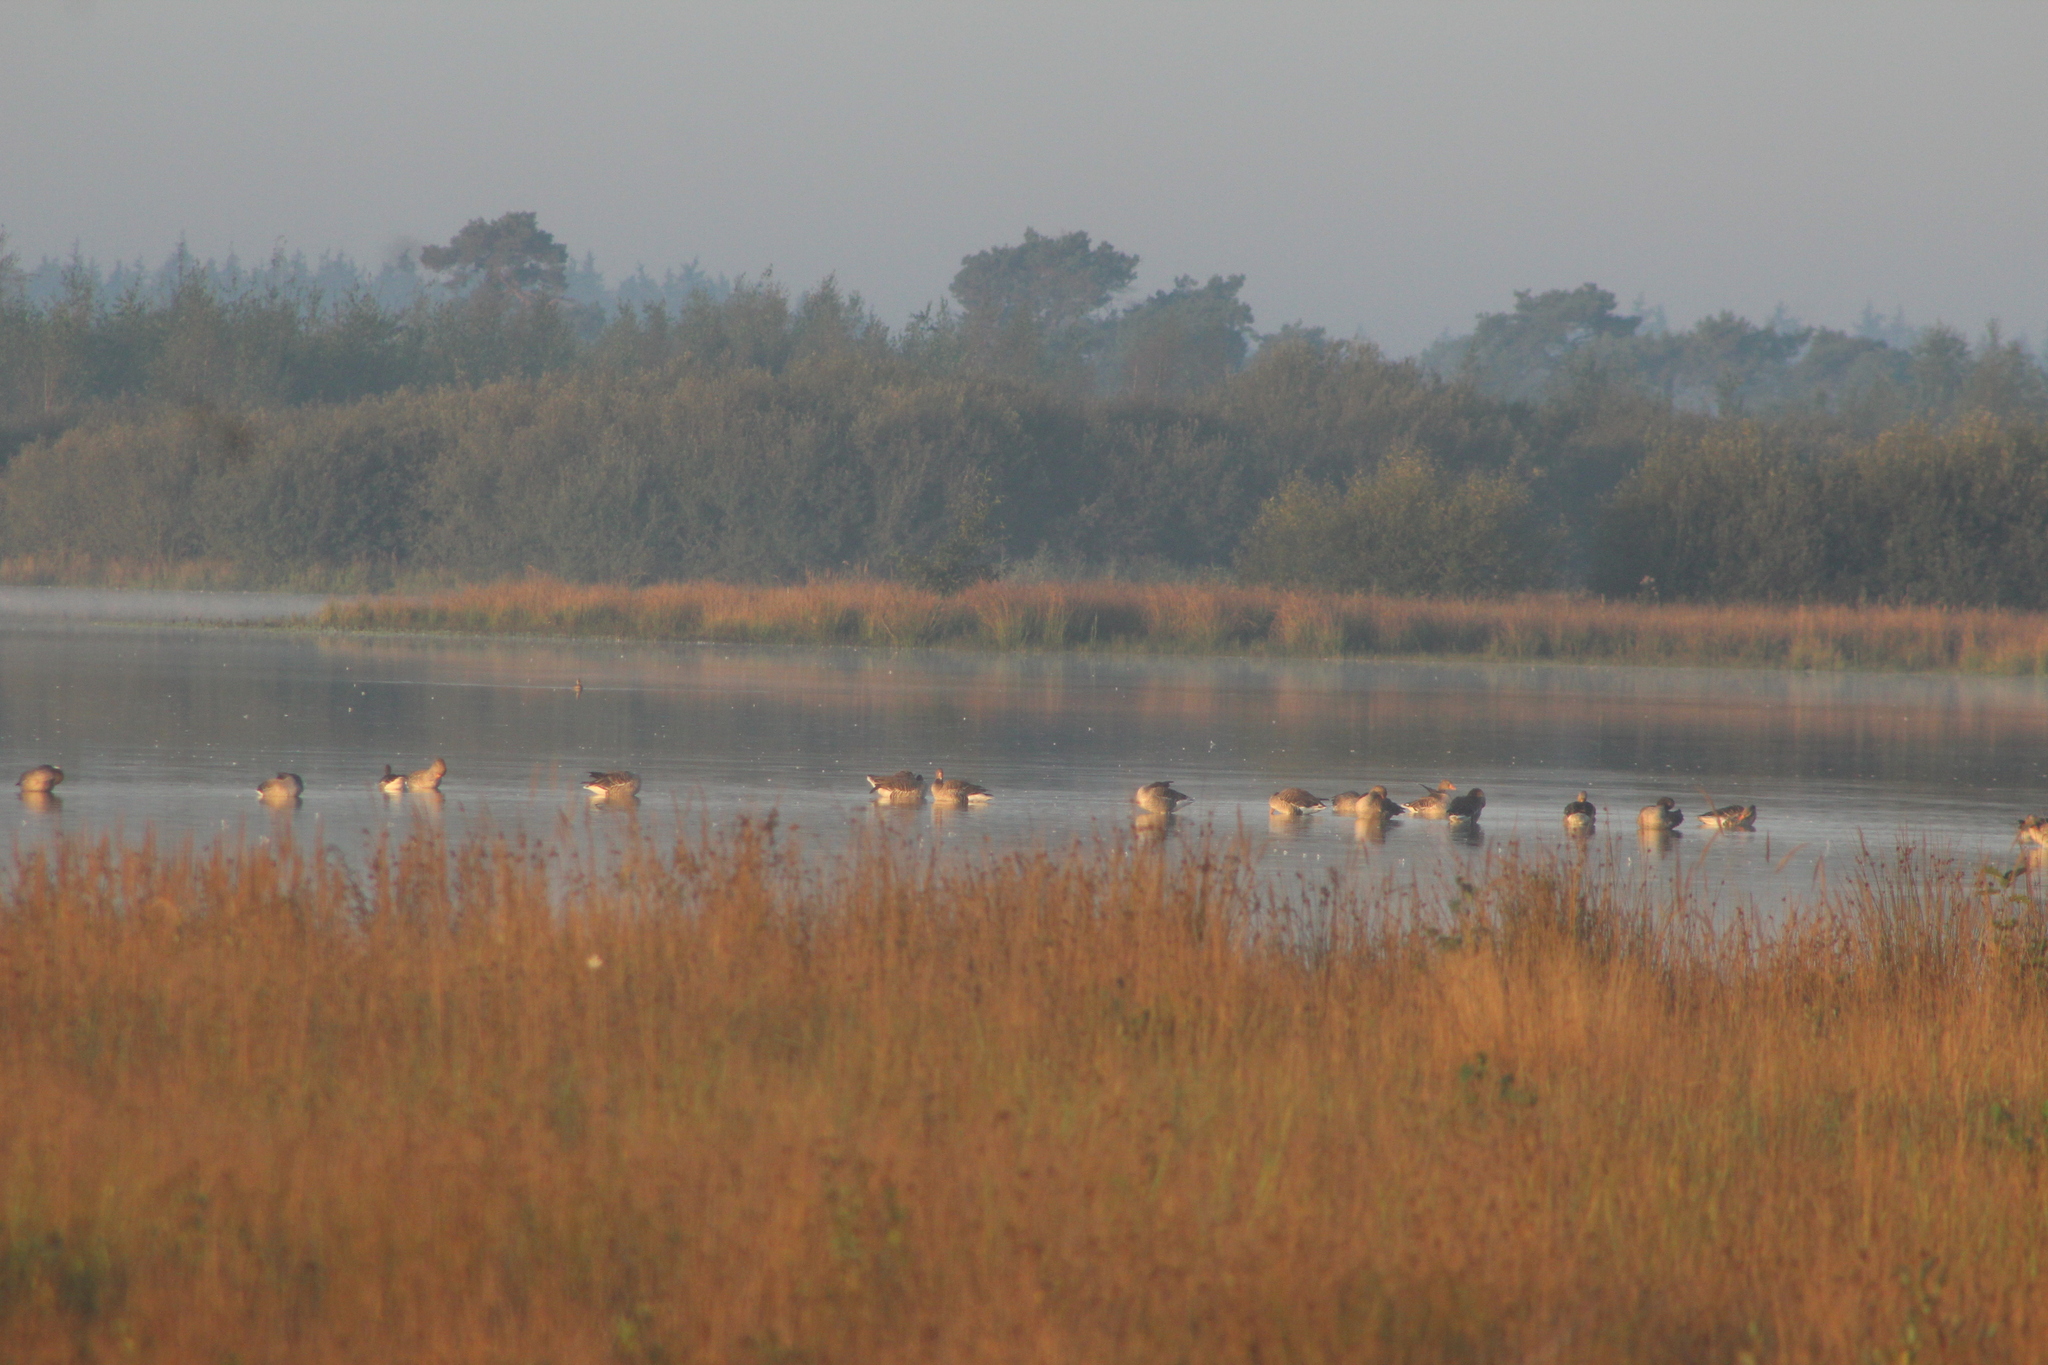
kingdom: Animalia
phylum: Chordata
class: Aves
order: Anseriformes
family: Anatidae
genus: Anser
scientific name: Anser anser
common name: Greylag goose
